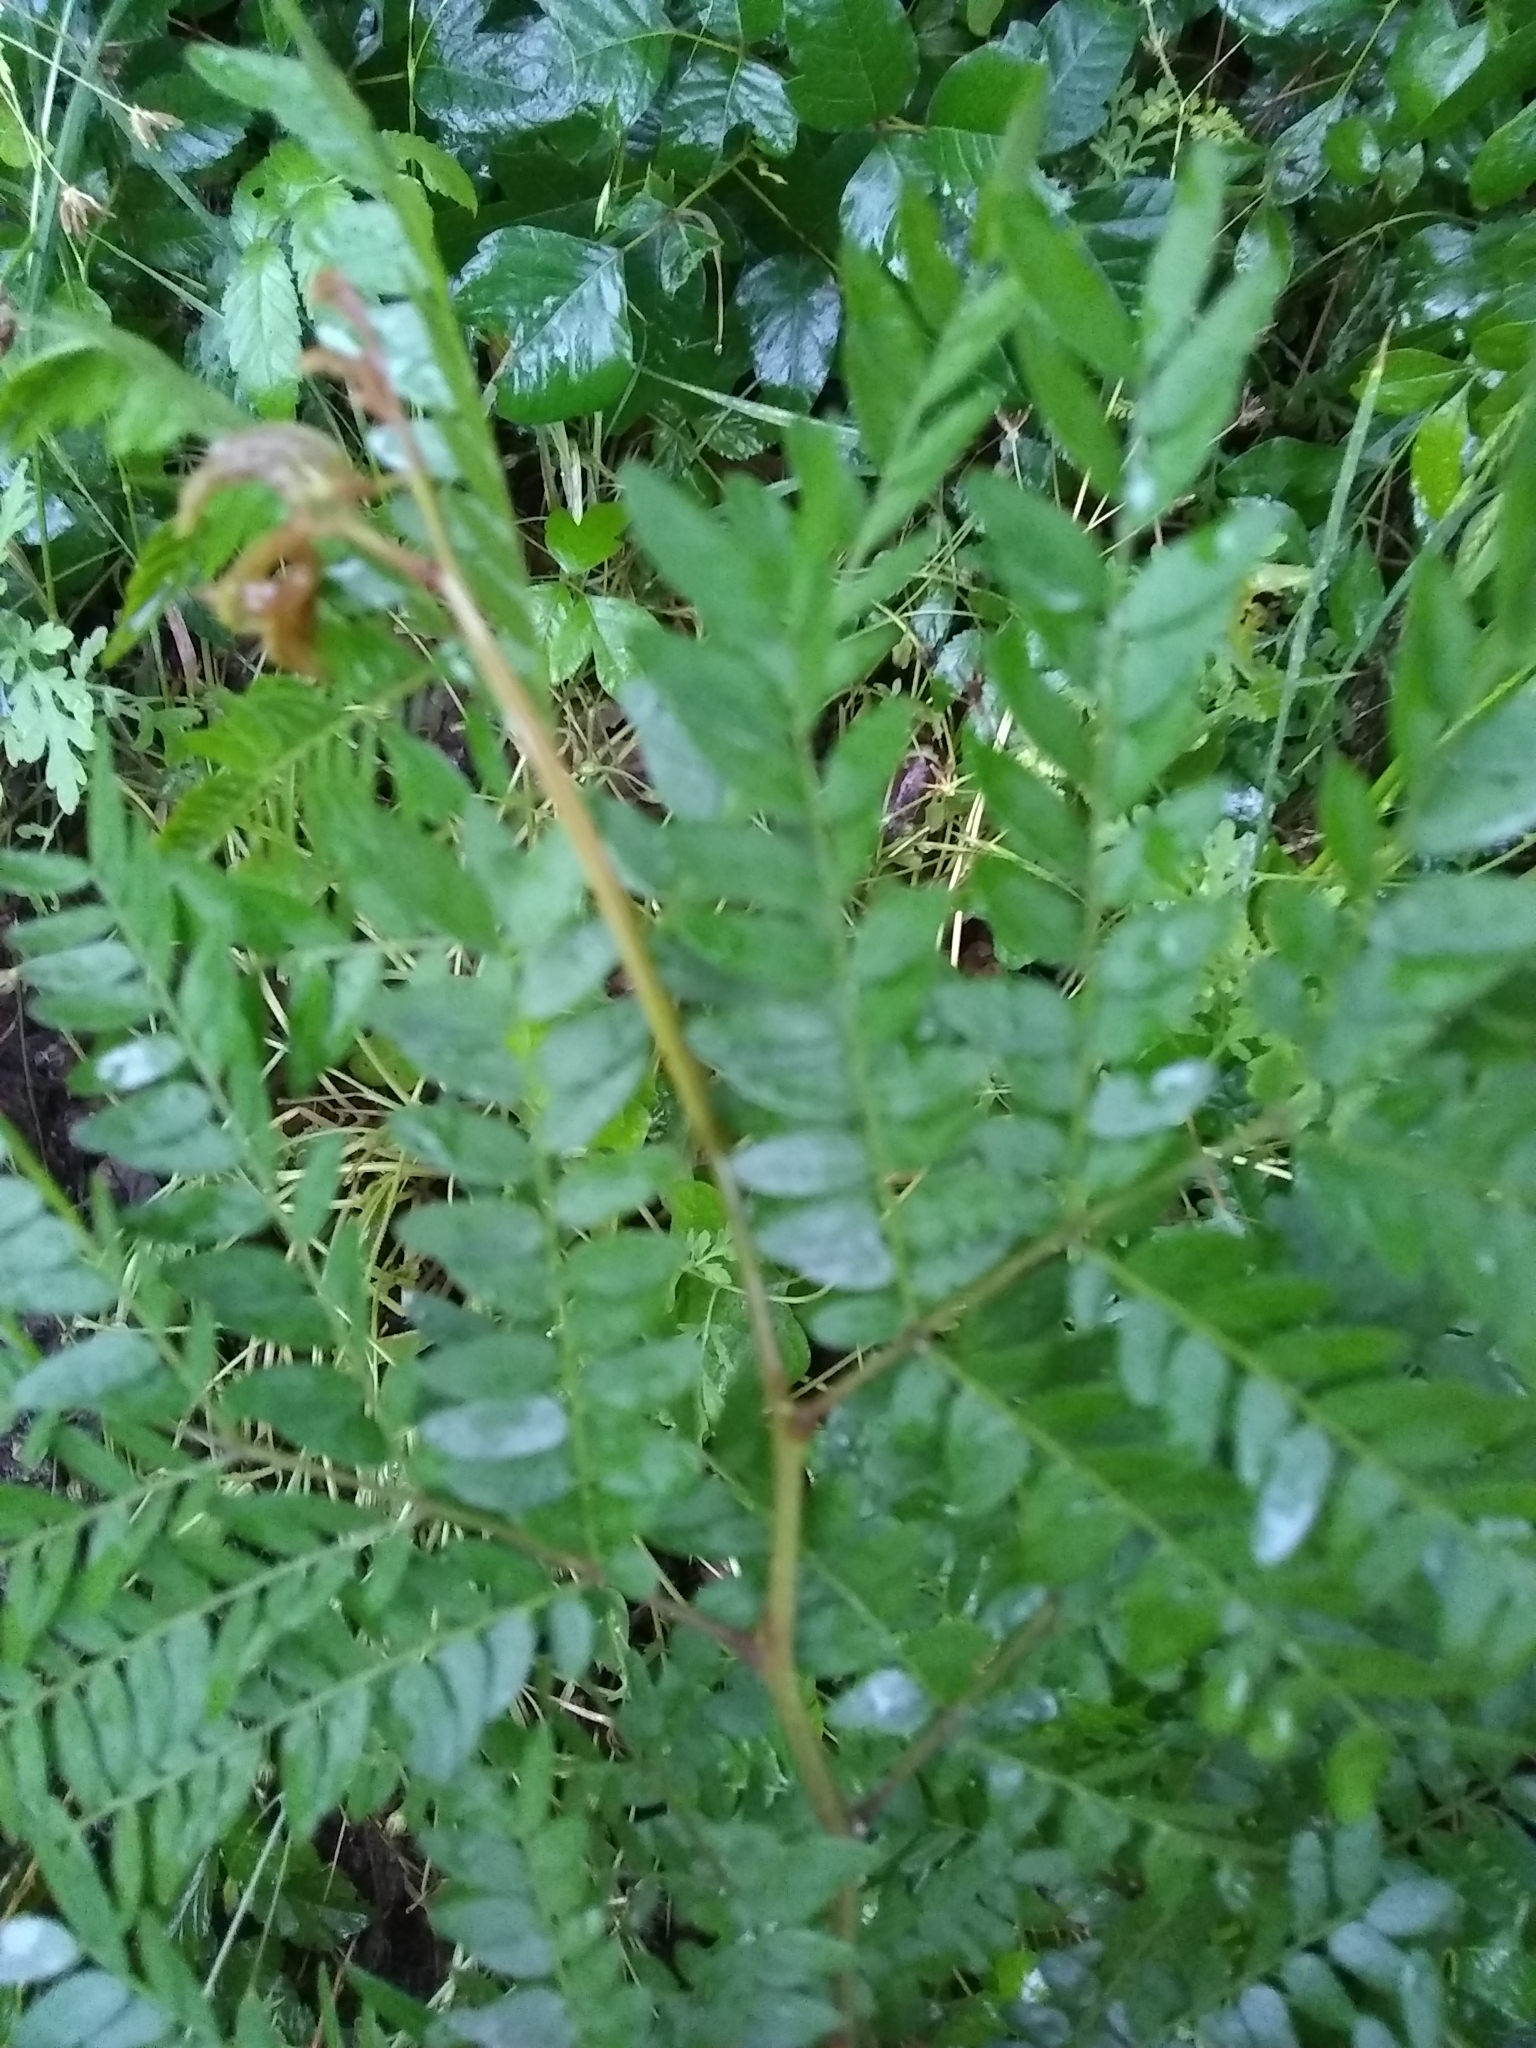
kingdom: Plantae
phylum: Tracheophyta
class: Magnoliopsida
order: Fabales
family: Fabaceae
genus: Gleditsia
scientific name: Gleditsia triacanthos
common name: Common honeylocust
